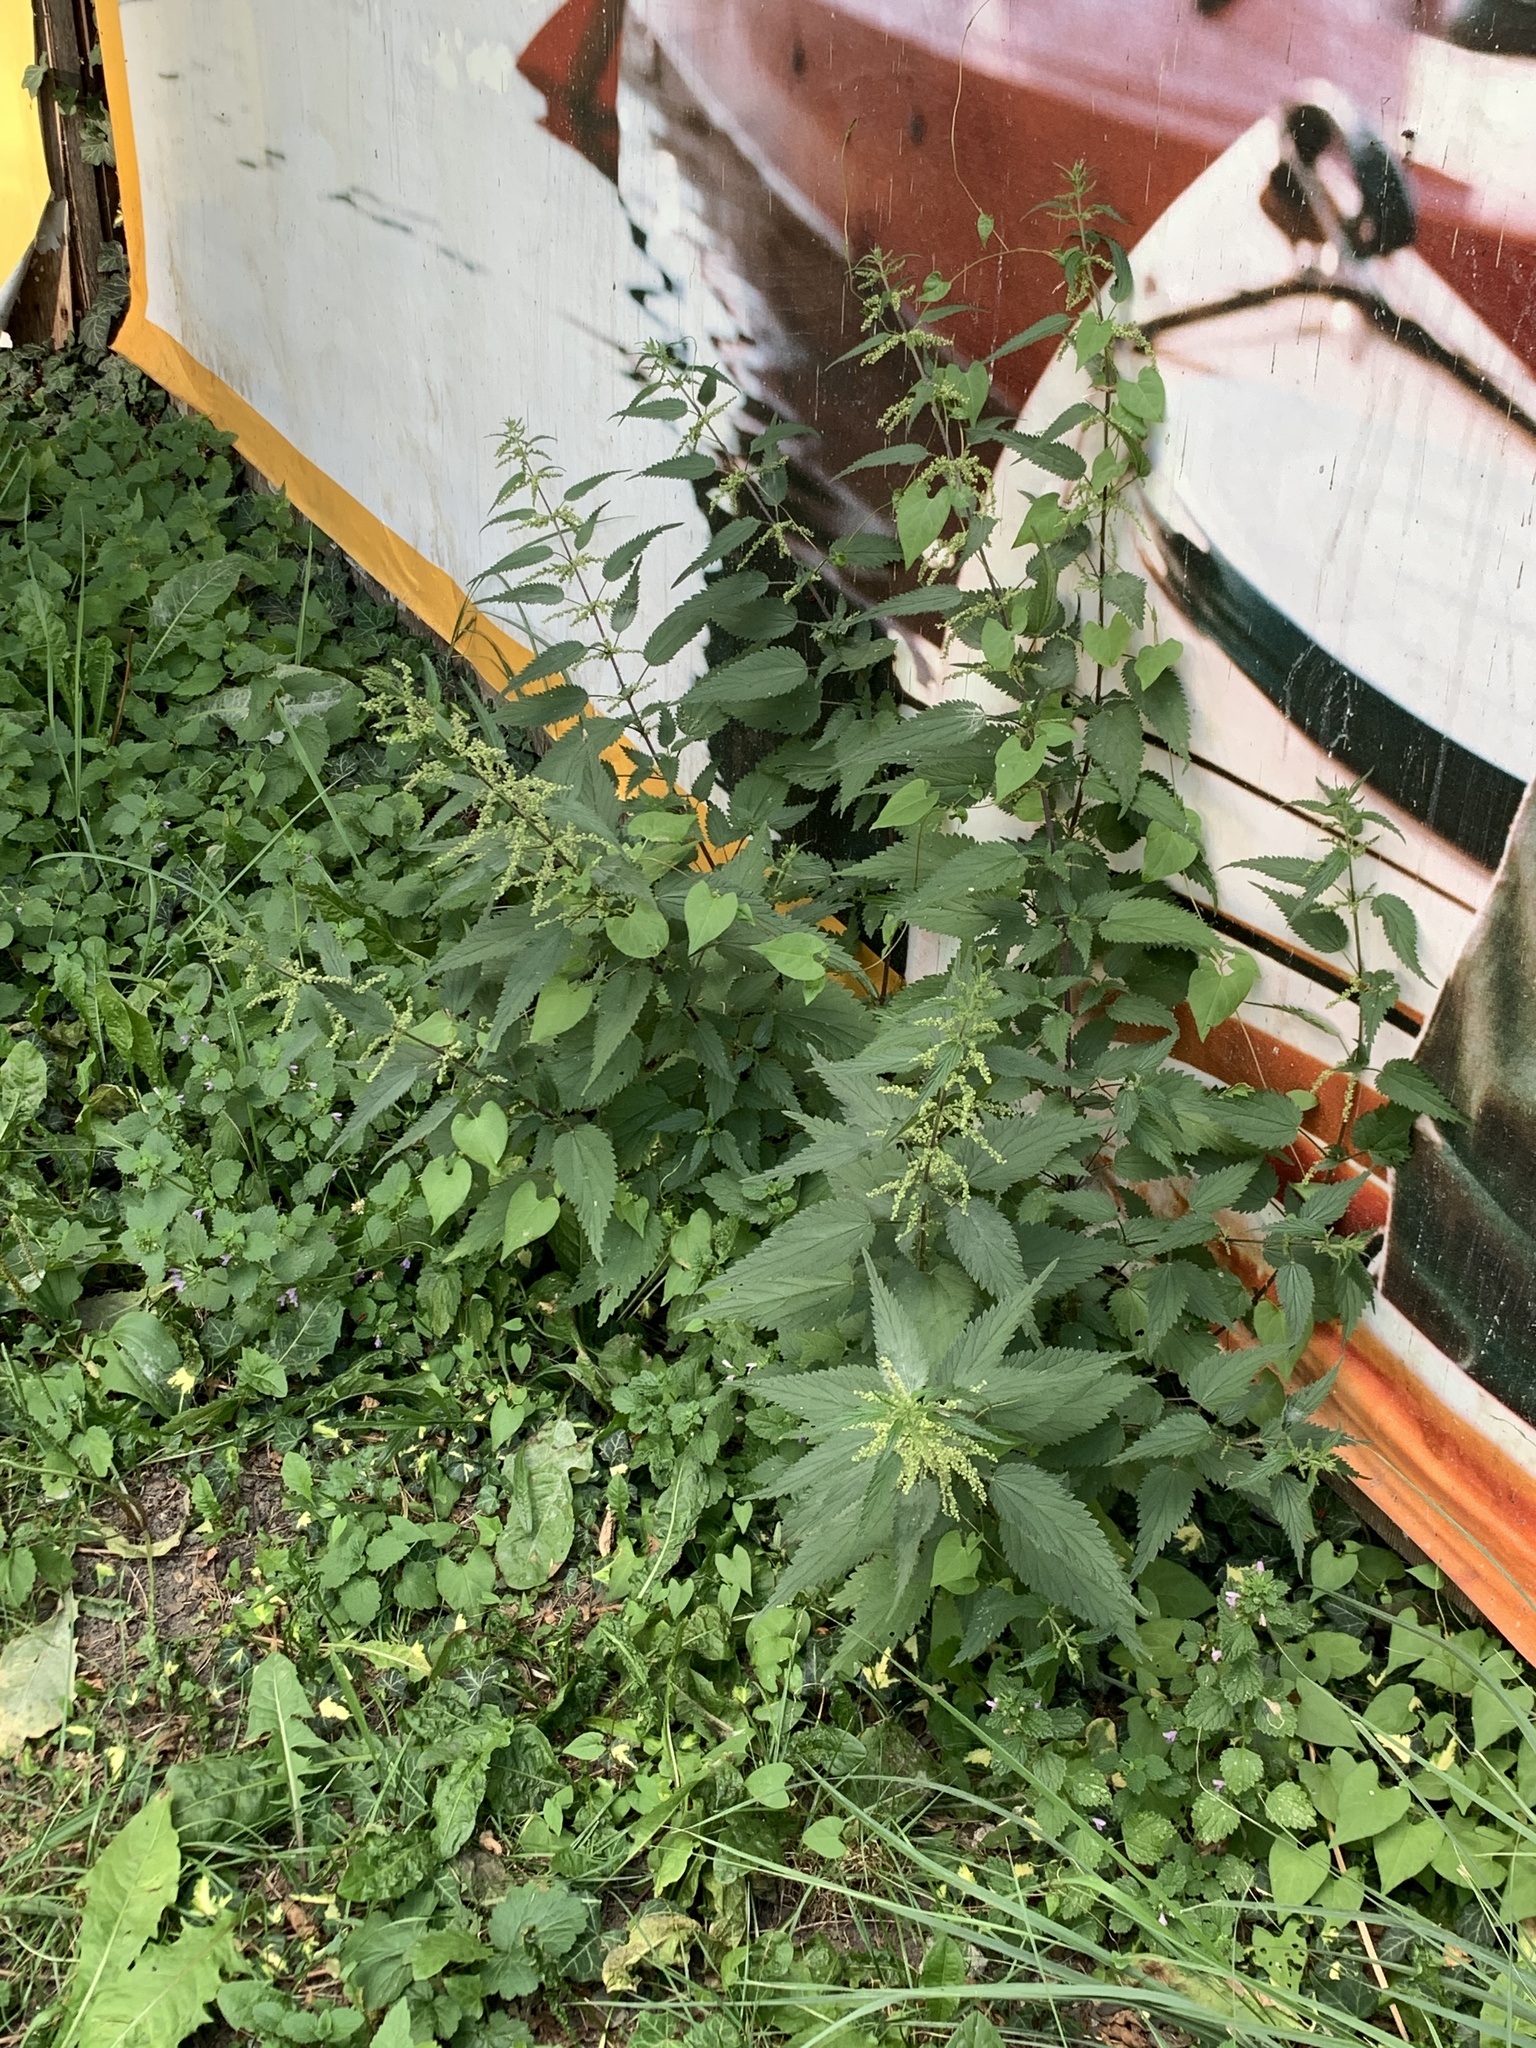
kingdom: Plantae
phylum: Tracheophyta
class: Magnoliopsida
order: Rosales
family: Urticaceae
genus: Urtica
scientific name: Urtica dioica
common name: Common nettle
